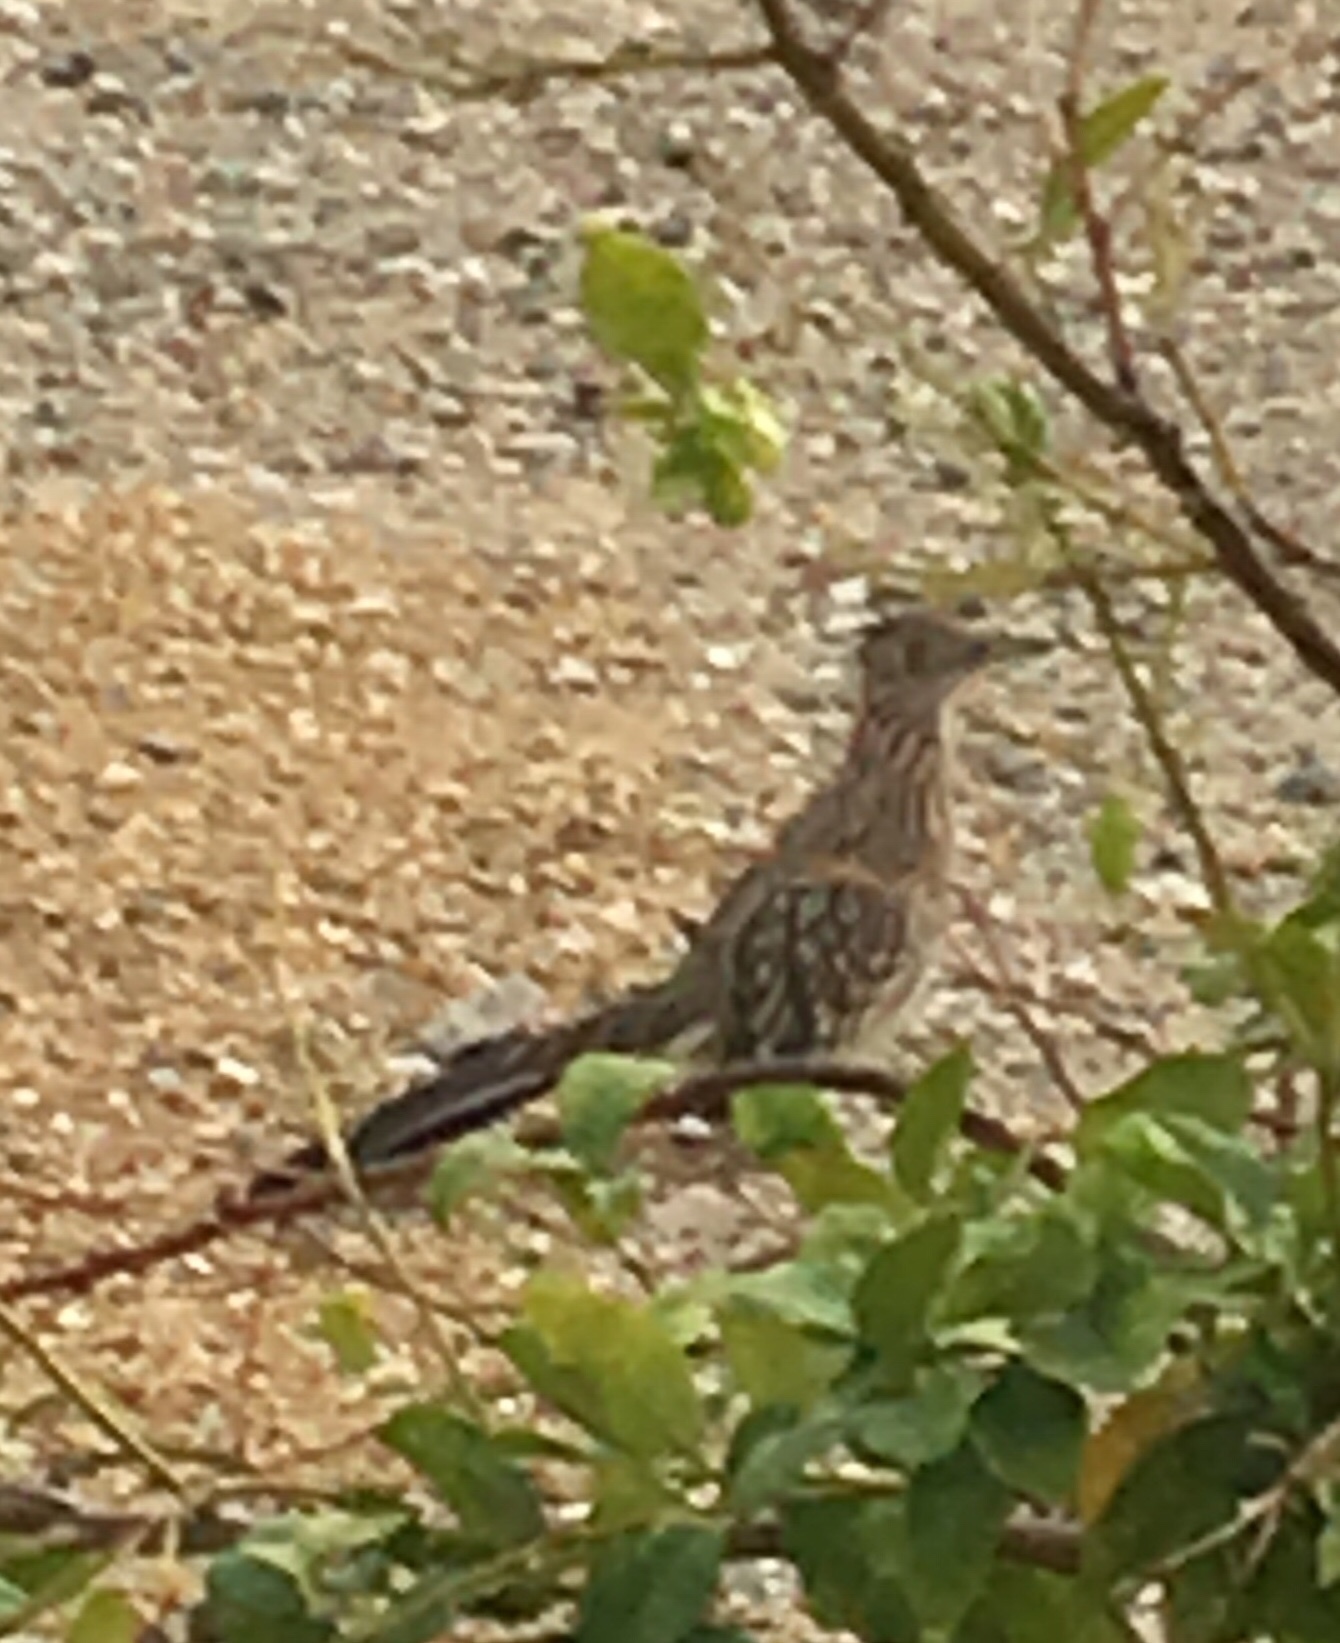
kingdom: Animalia
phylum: Chordata
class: Aves
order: Cuculiformes
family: Cuculidae
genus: Geococcyx
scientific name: Geococcyx californianus
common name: Greater roadrunner
